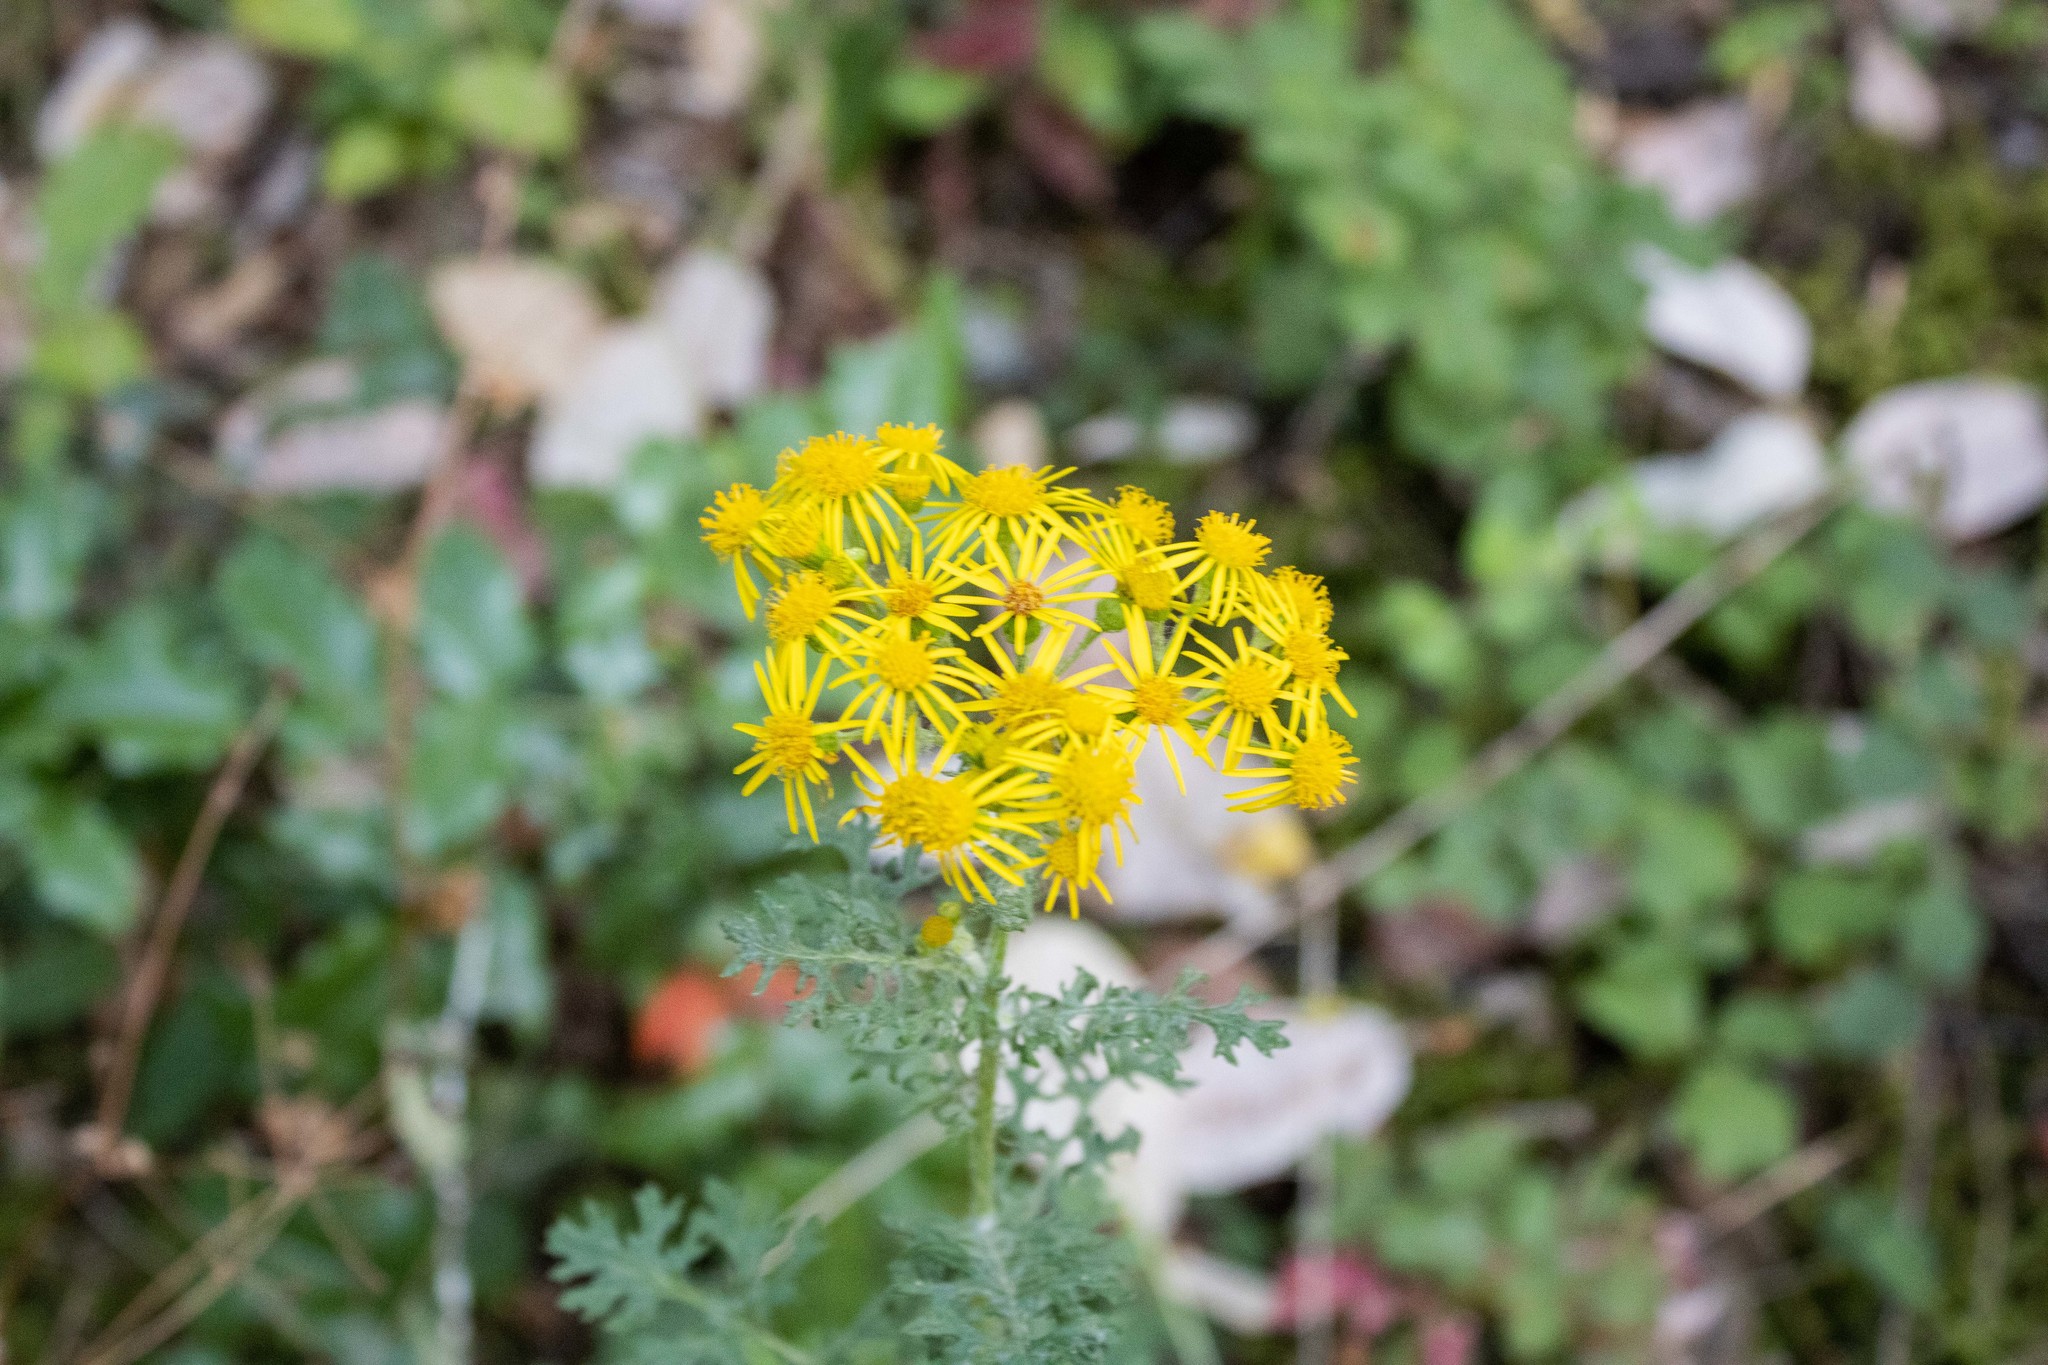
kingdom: Plantae
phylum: Tracheophyta
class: Magnoliopsida
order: Asterales
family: Asteraceae
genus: Jacobaea
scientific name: Jacobaea vulgaris
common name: Stinking willie
